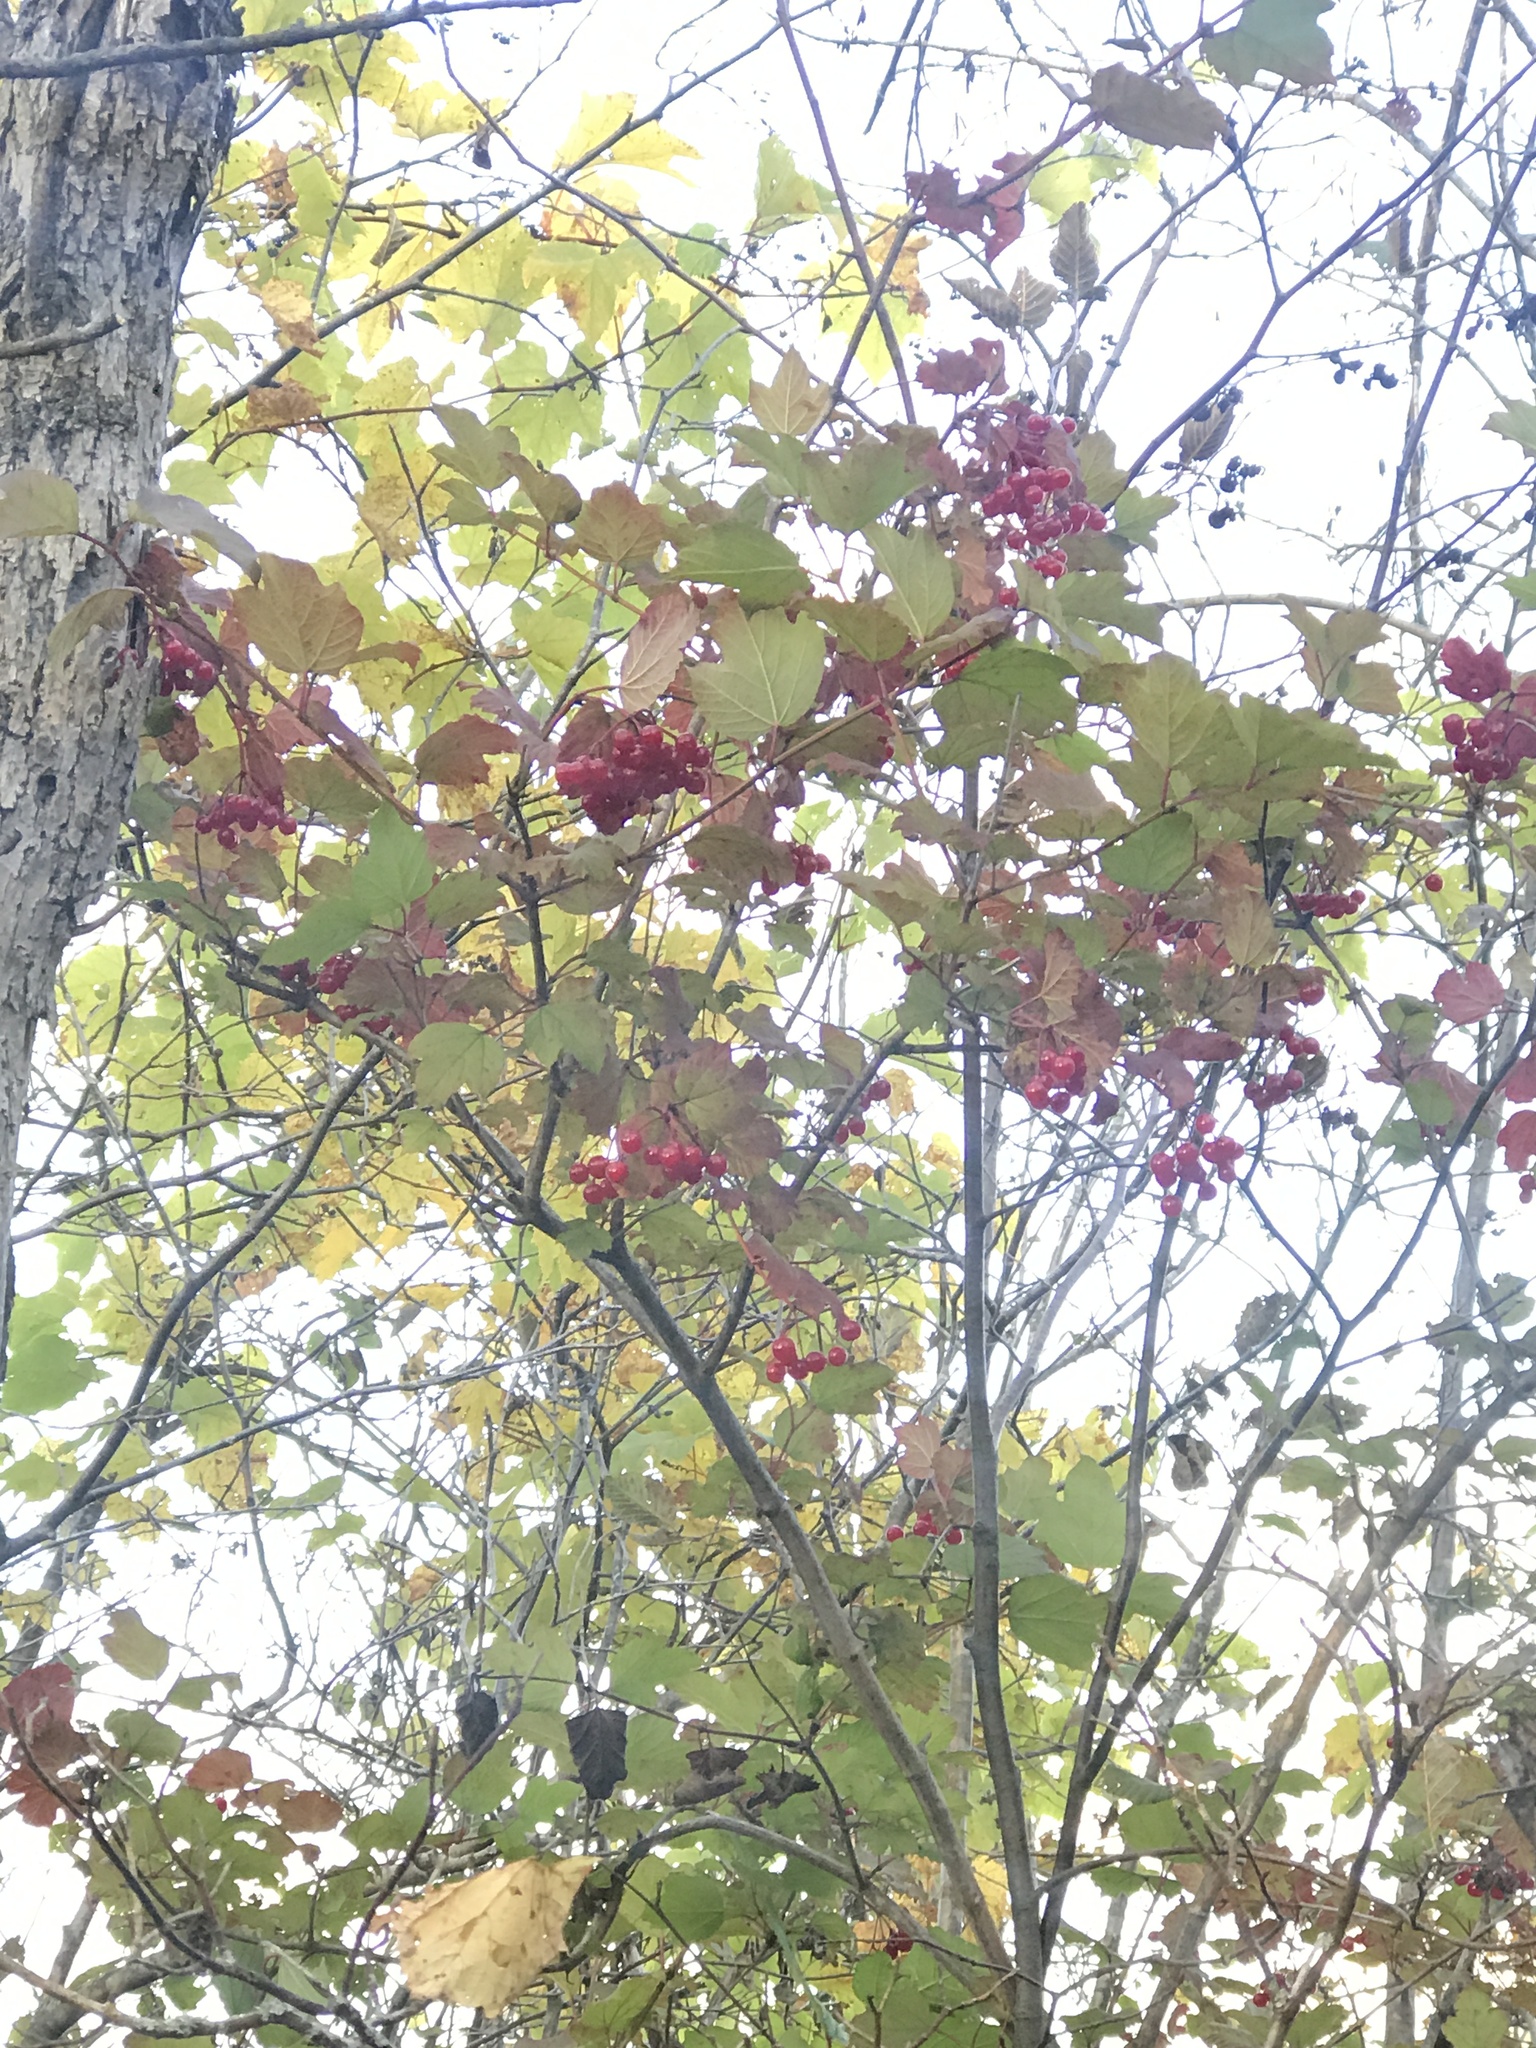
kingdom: Plantae
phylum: Tracheophyta
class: Magnoliopsida
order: Dipsacales
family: Viburnaceae
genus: Viburnum
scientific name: Viburnum opulus
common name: Guelder-rose
